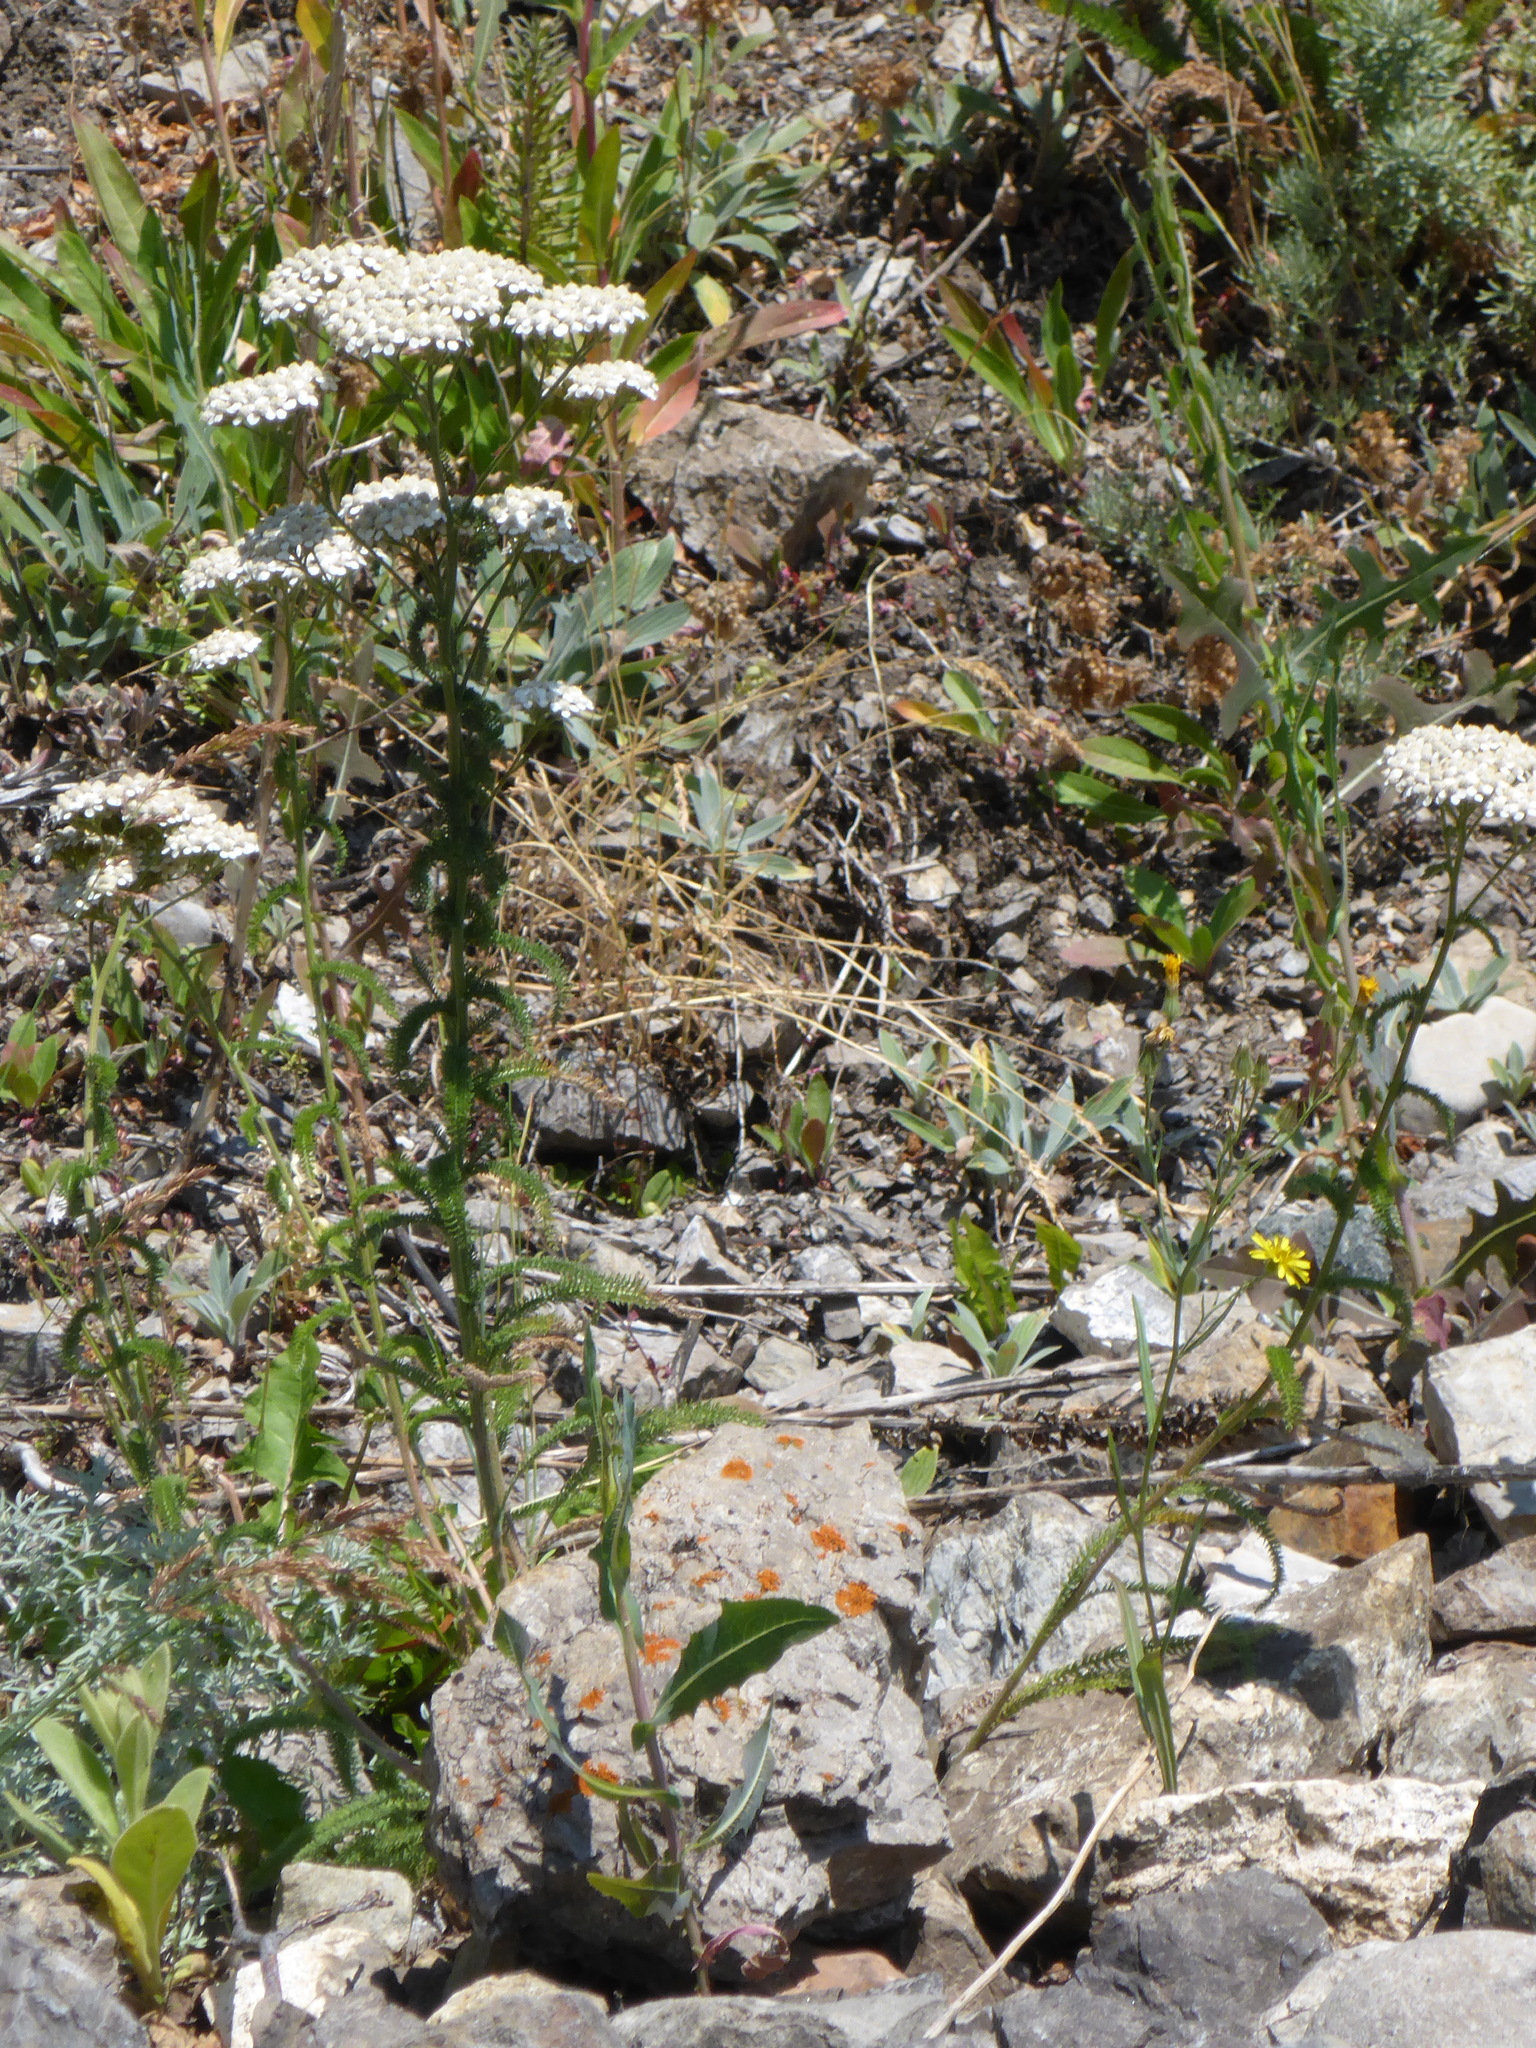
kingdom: Plantae
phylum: Tracheophyta
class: Magnoliopsida
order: Asterales
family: Asteraceae
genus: Achillea
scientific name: Achillea millefolium
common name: Yarrow
